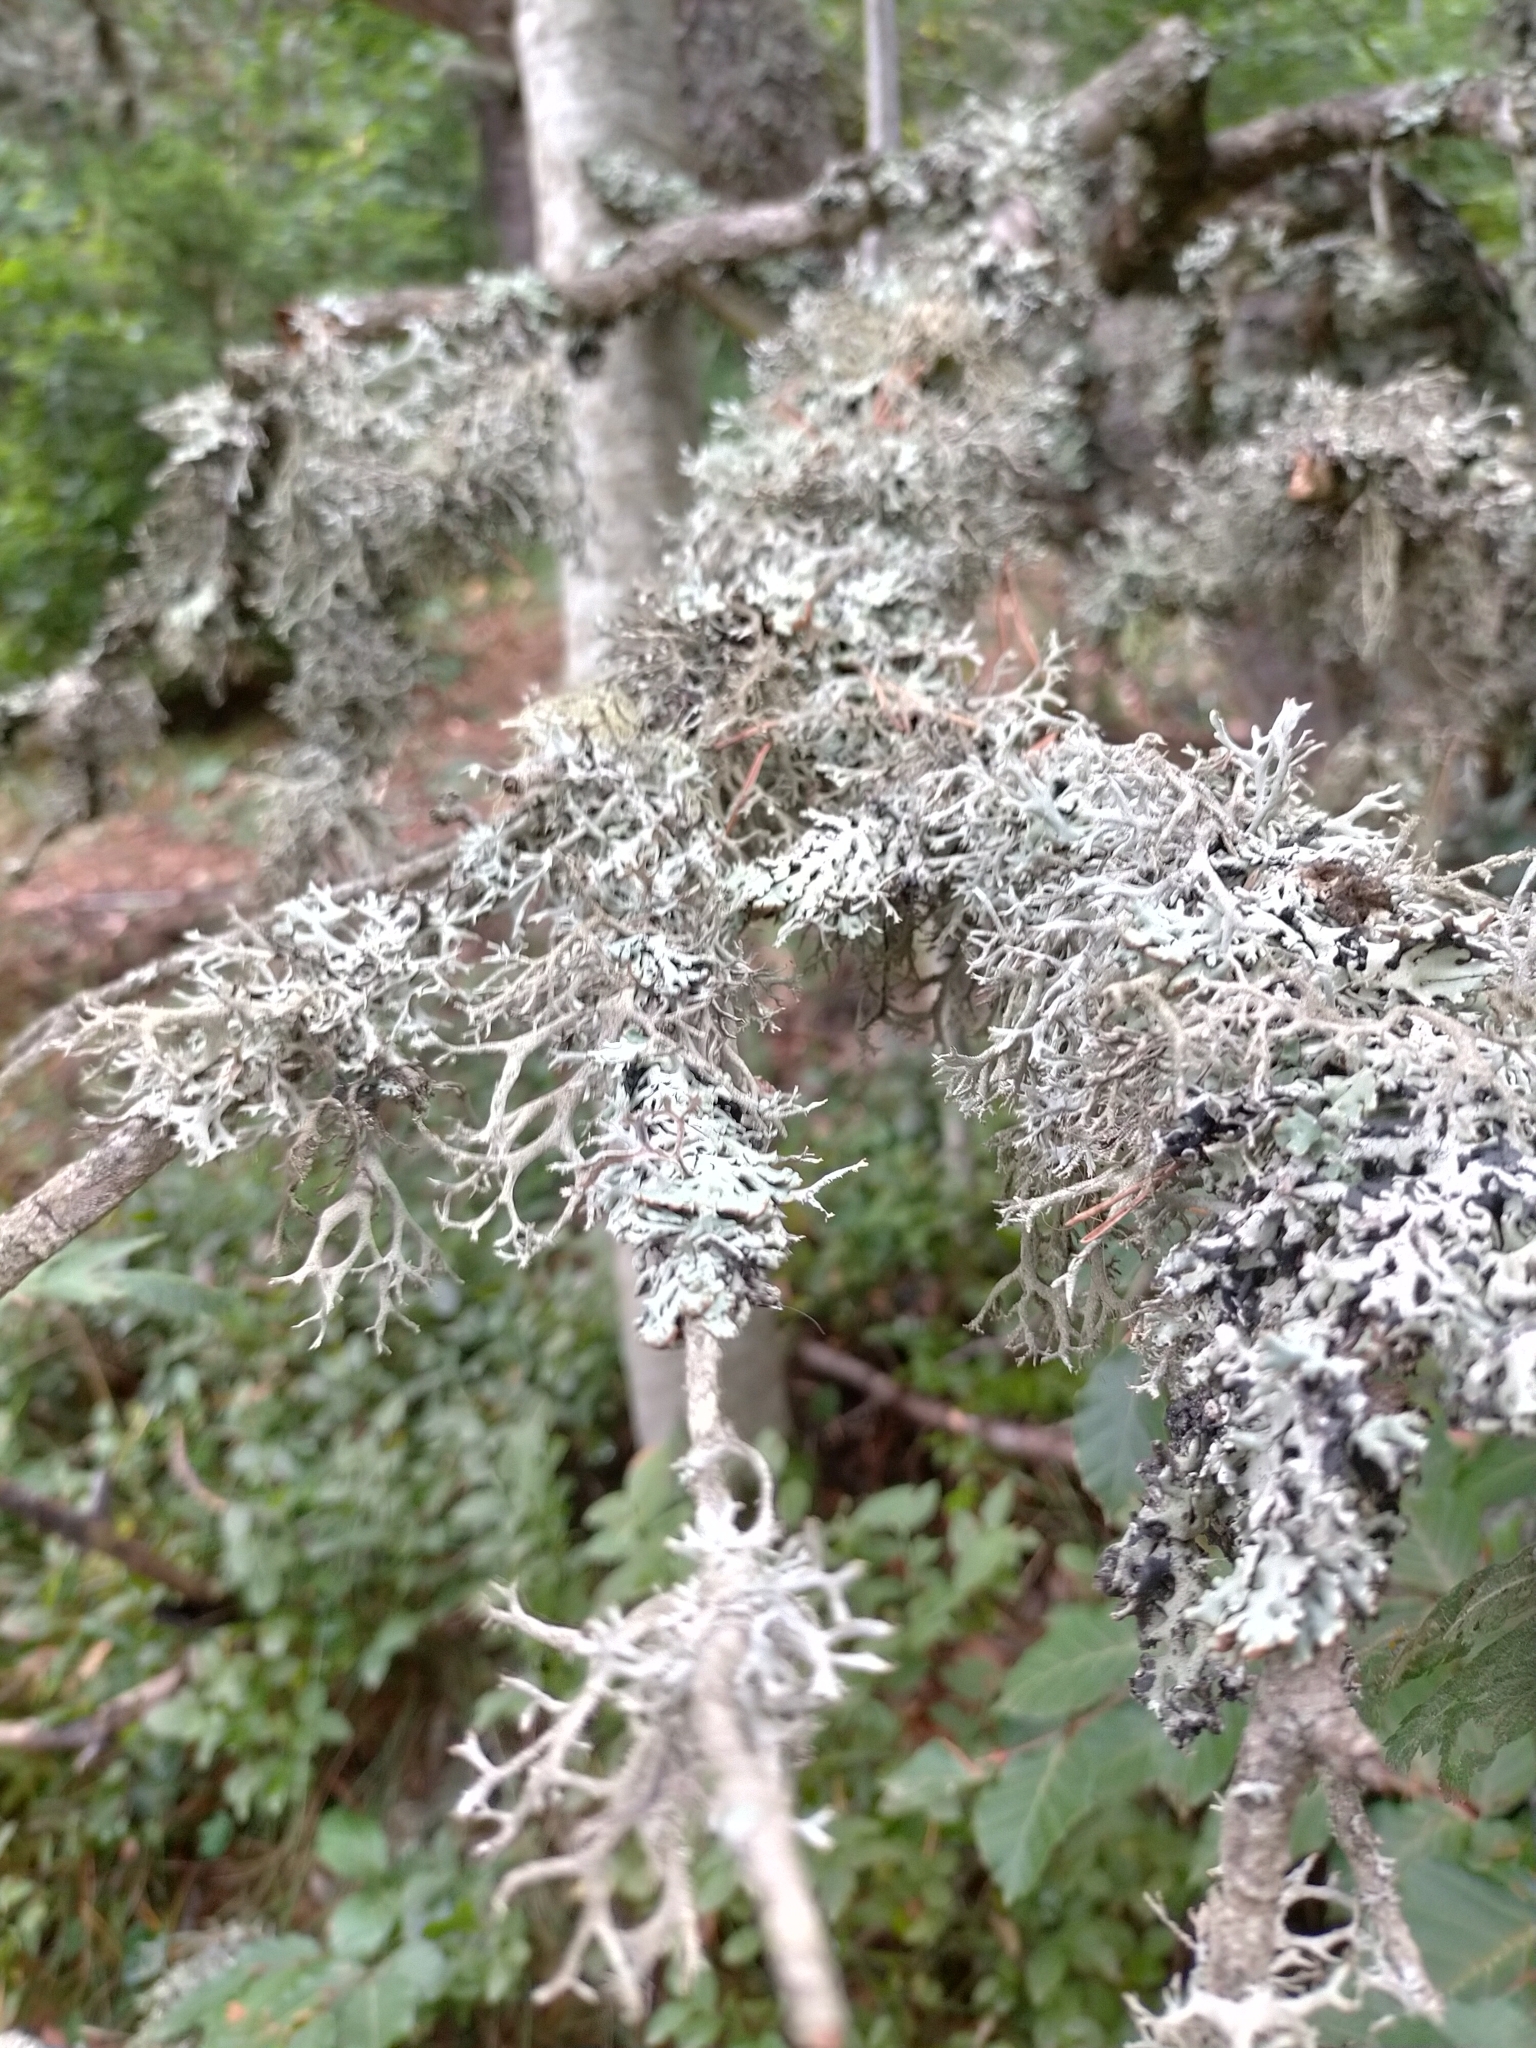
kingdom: Fungi
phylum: Ascomycota
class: Lecanoromycetes
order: Lecanorales
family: Parmeliaceae
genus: Pseudevernia
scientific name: Pseudevernia furfuracea
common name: Tree moss
